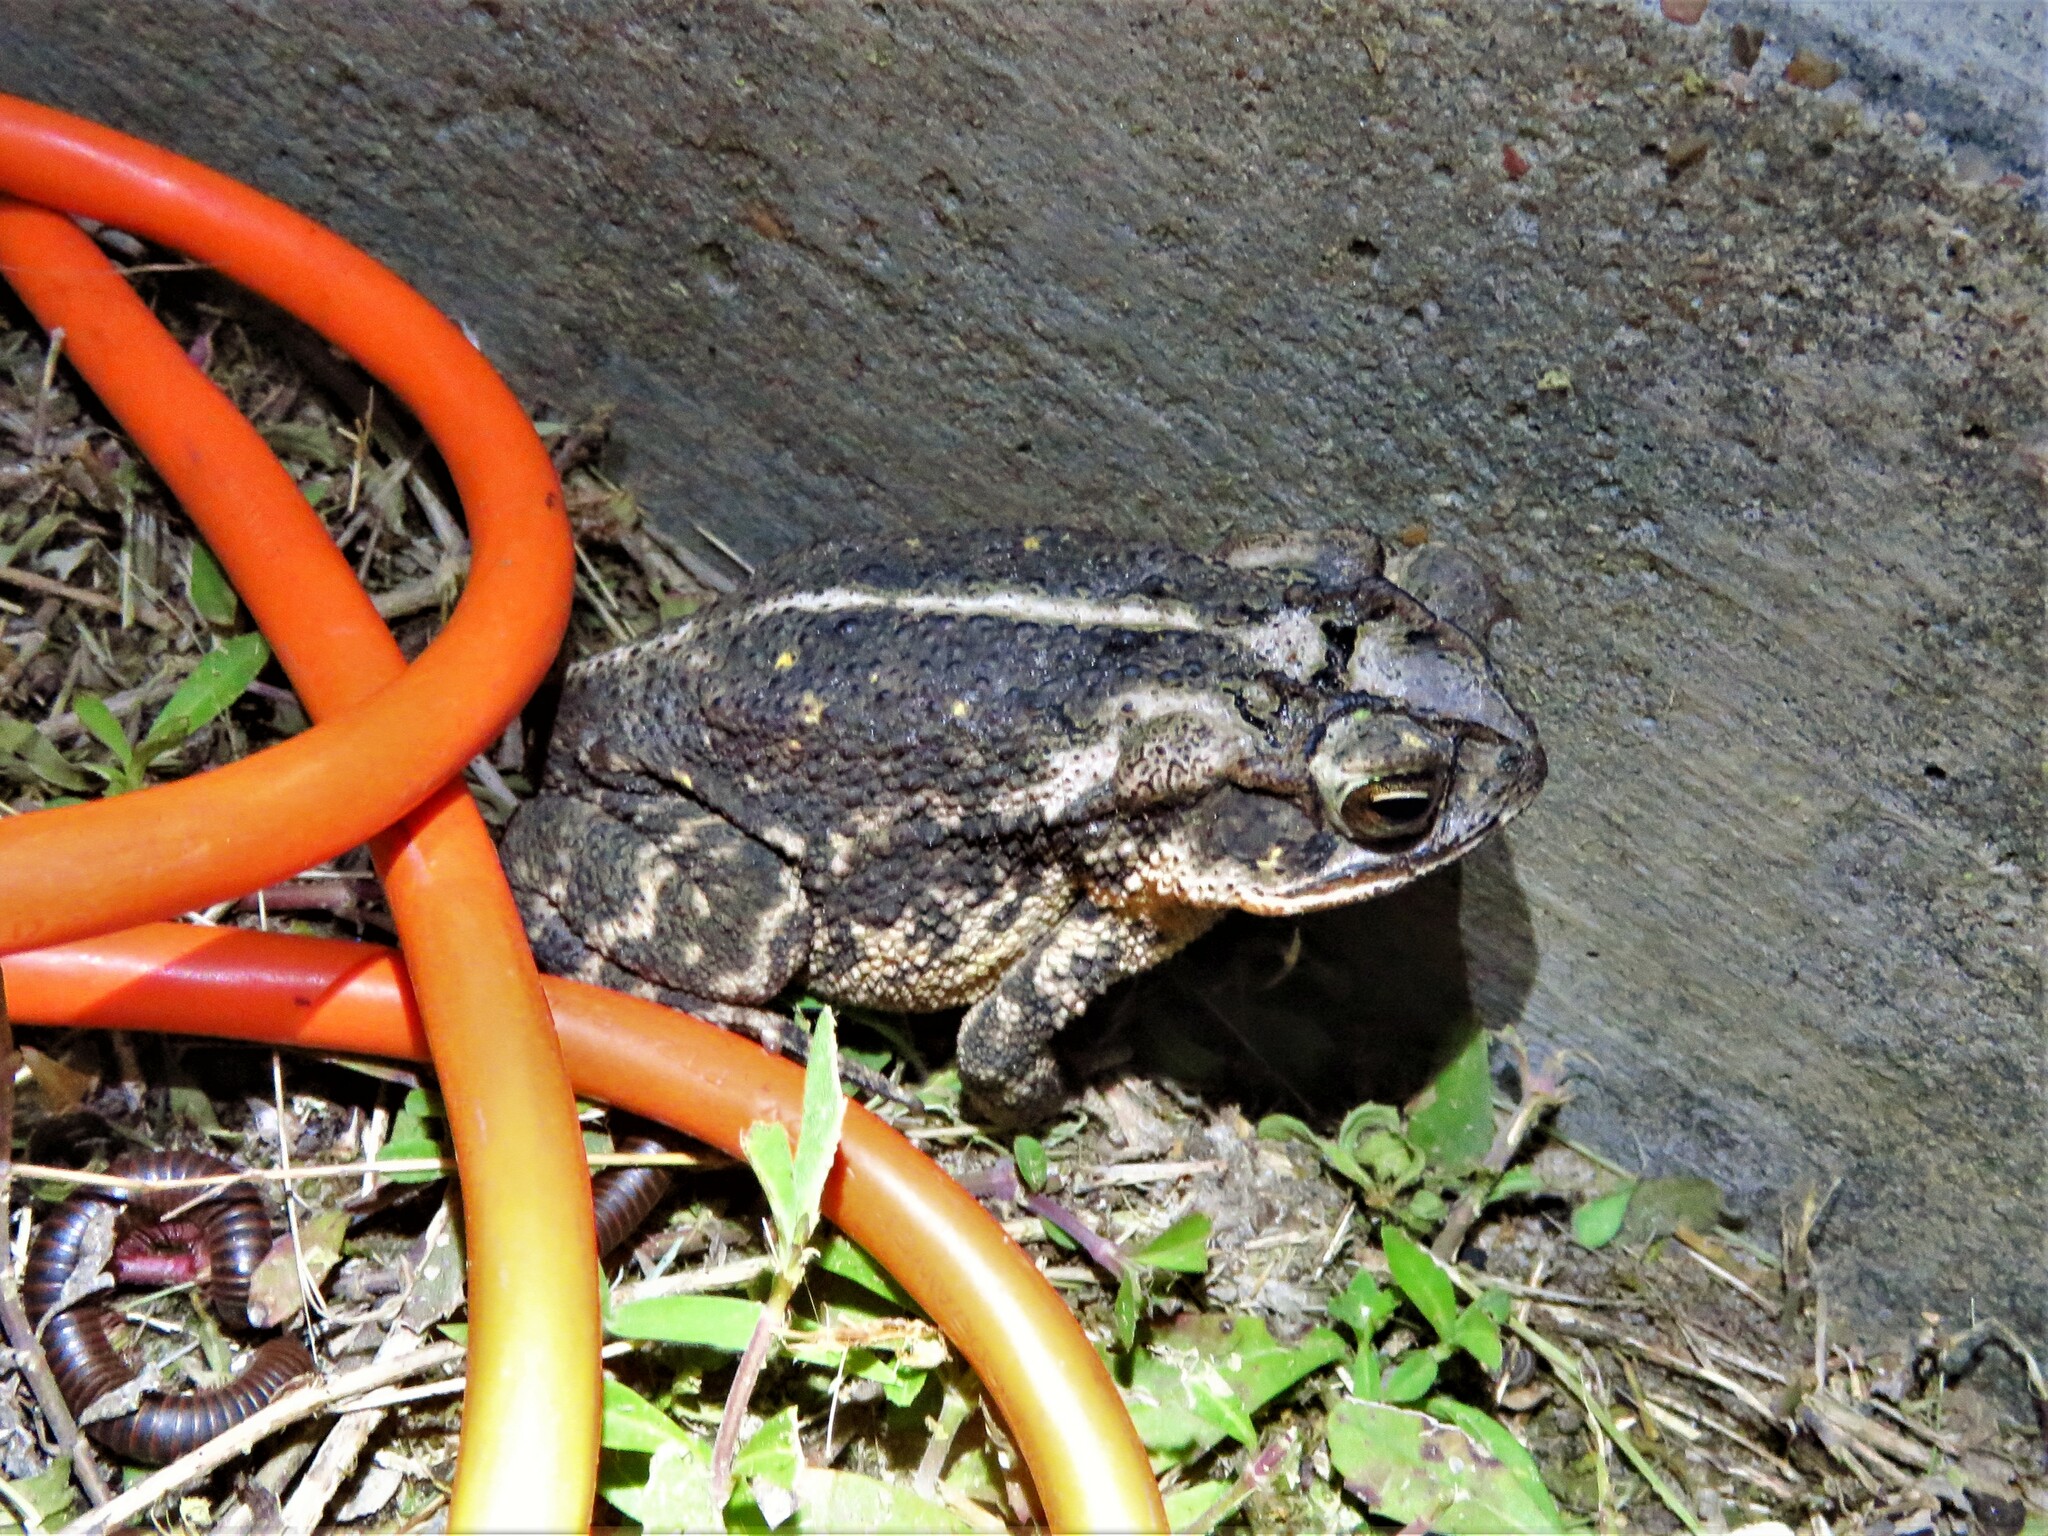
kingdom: Animalia
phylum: Chordata
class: Amphibia
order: Anura
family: Bufonidae
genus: Incilius
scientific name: Incilius nebulifer
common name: Gulf coast toad
